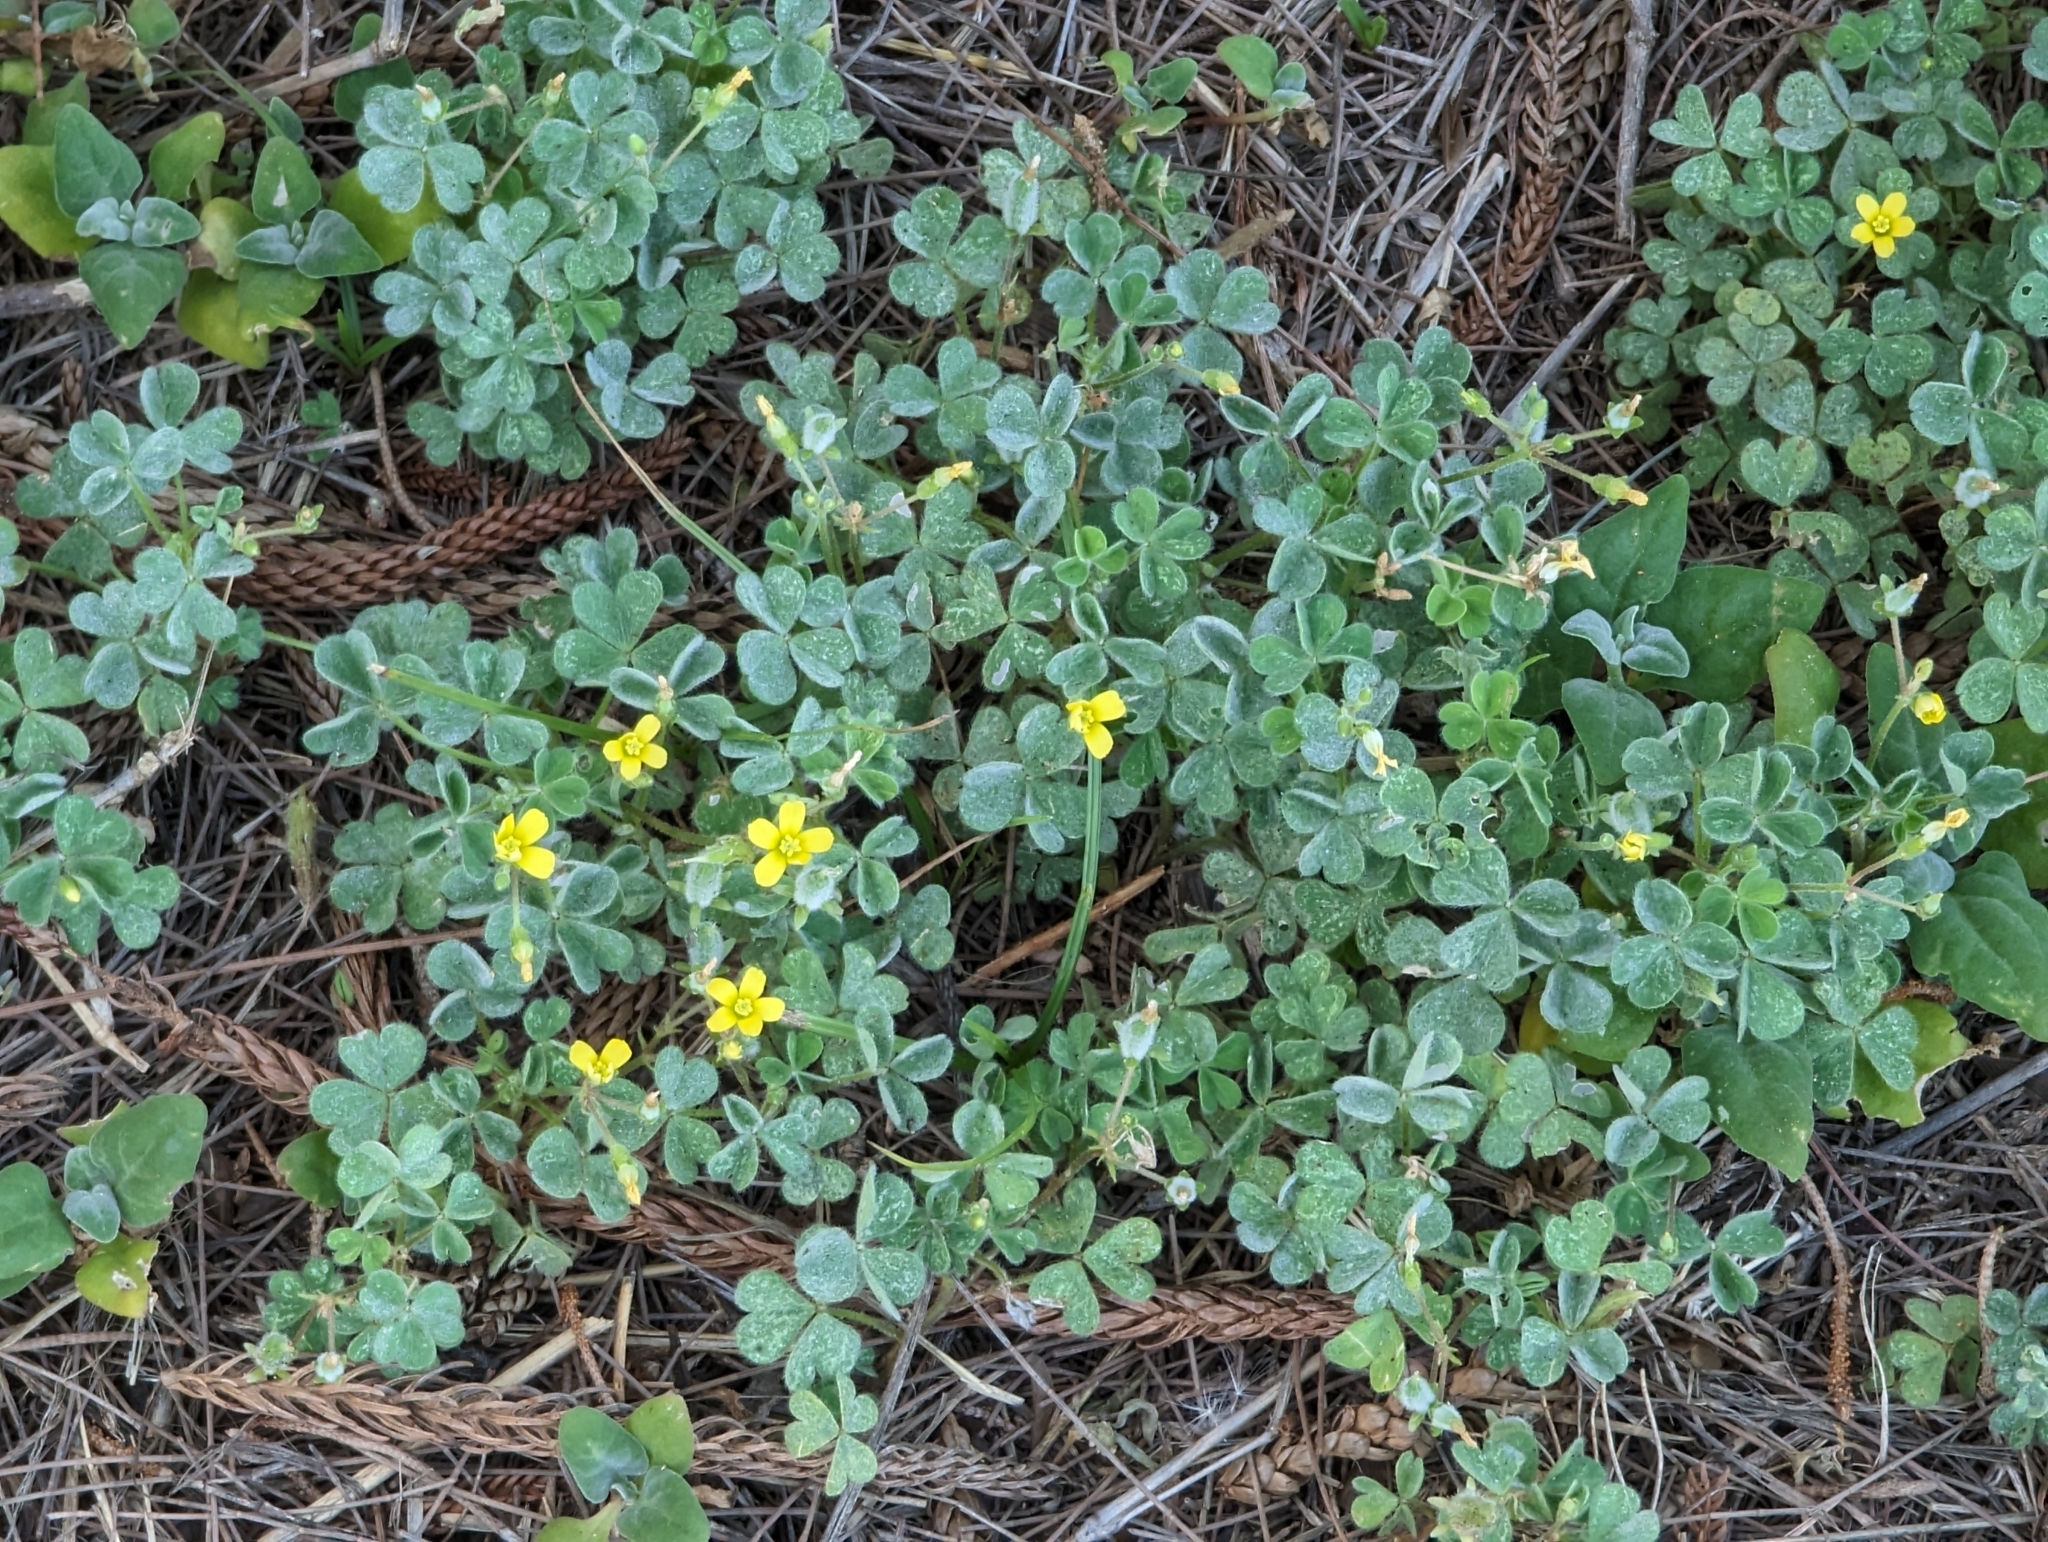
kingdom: Plantae
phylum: Tracheophyta
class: Magnoliopsida
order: Oxalidales
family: Oxalidaceae
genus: Oxalis
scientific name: Oxalis corniculata
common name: Procumbent yellow-sorrel
